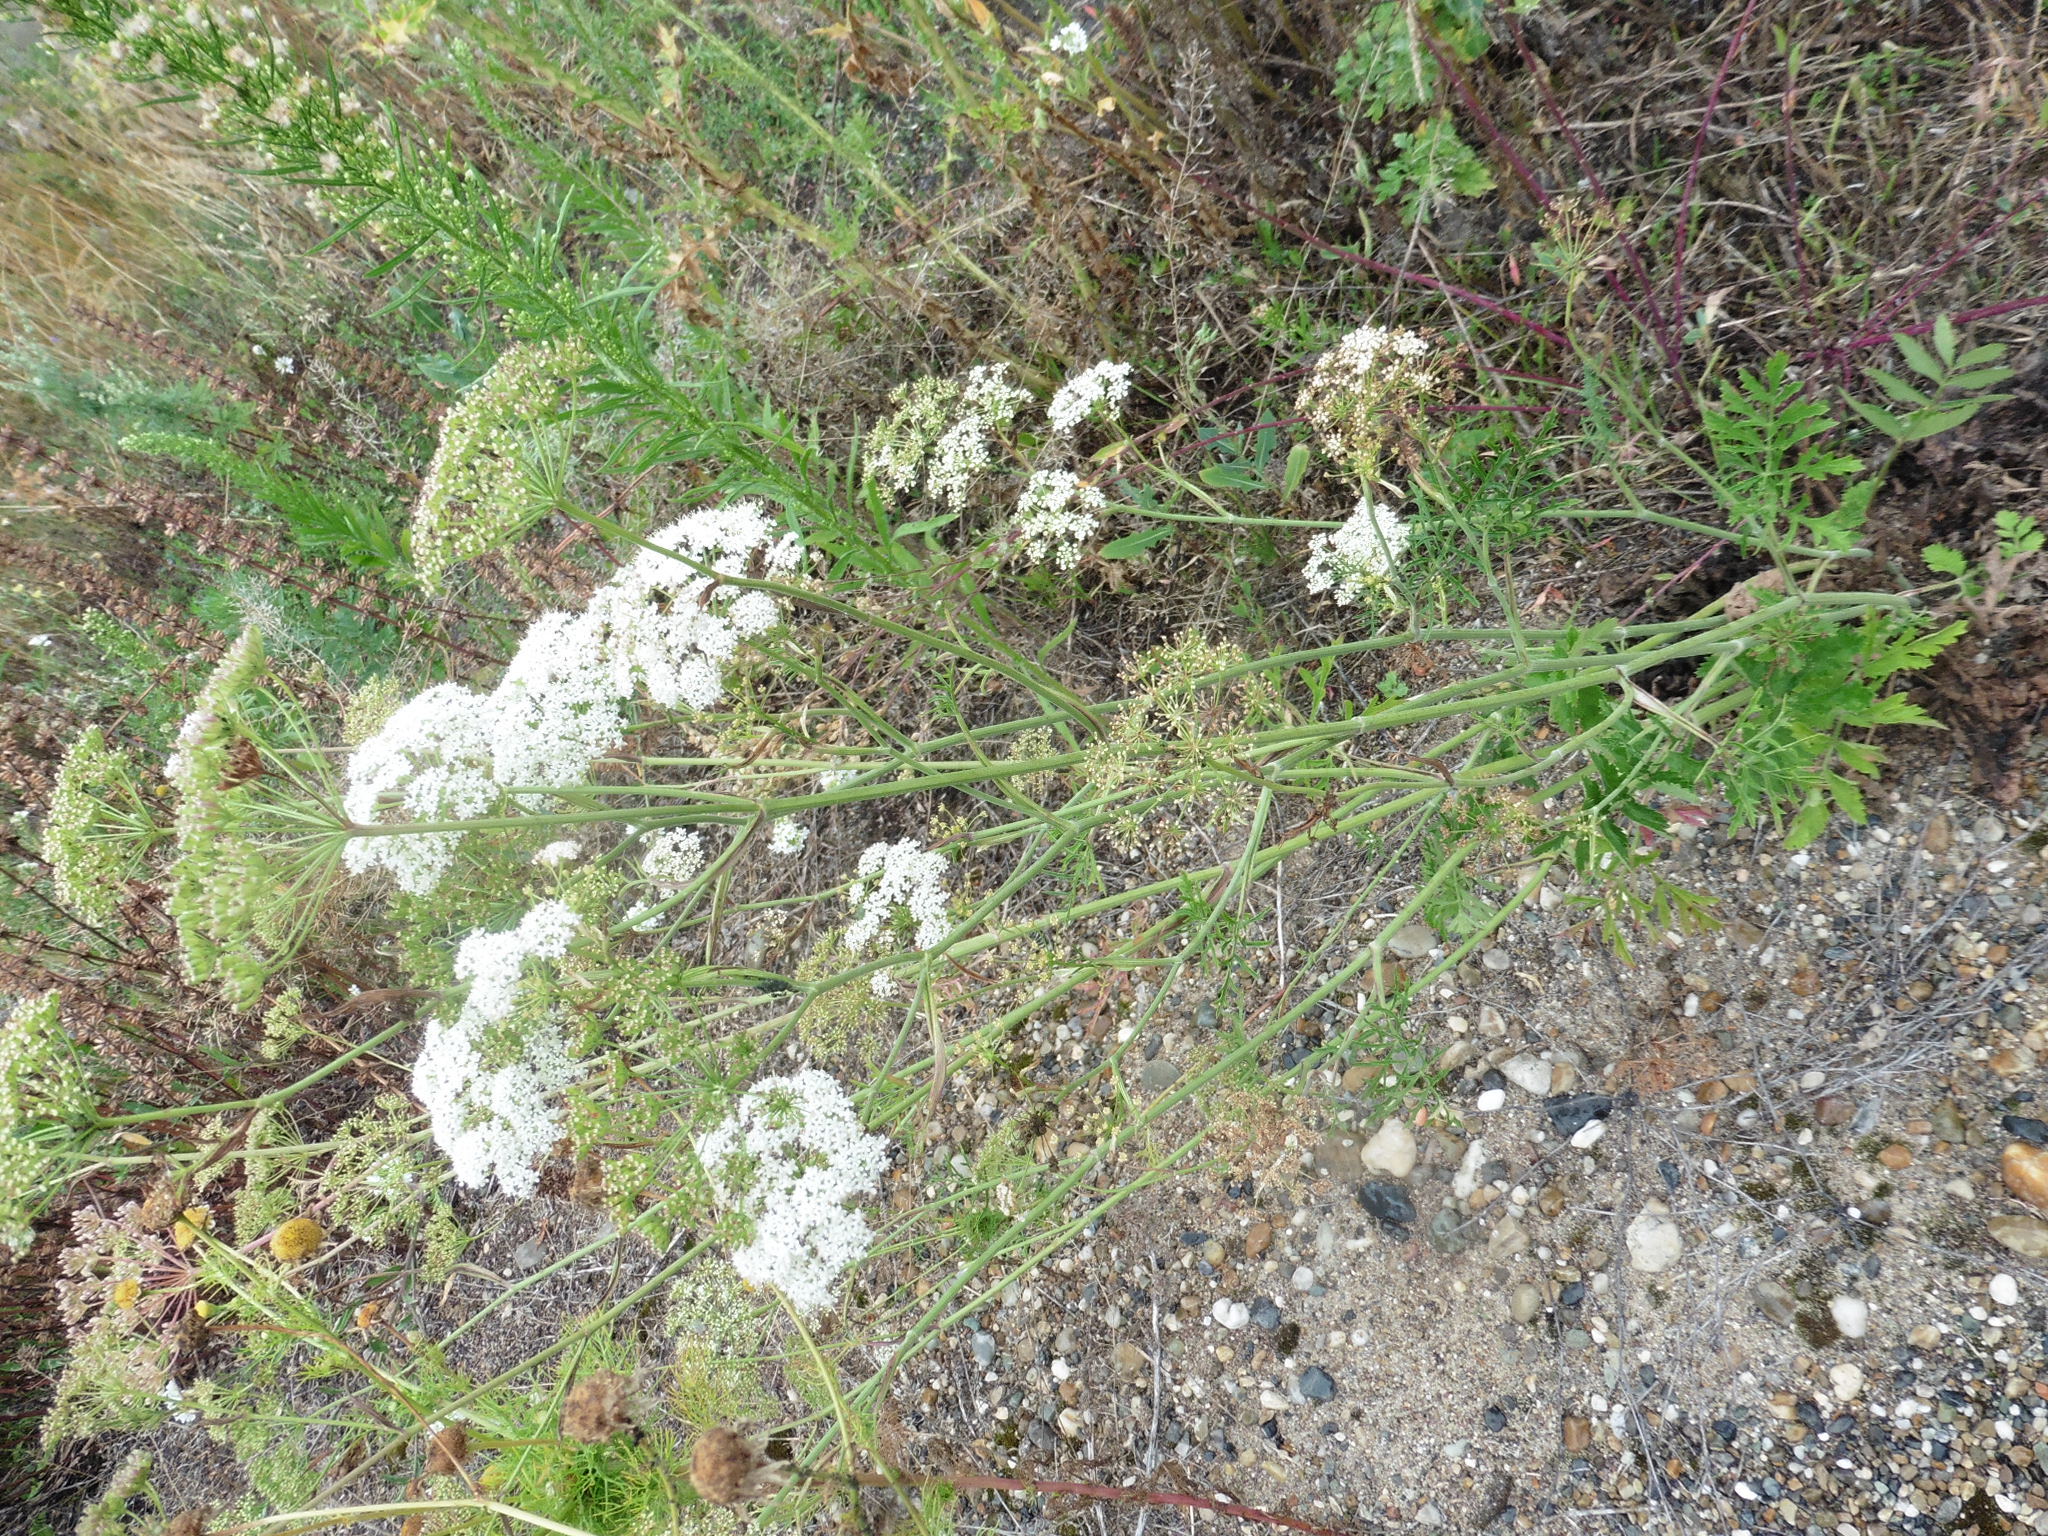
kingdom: Plantae
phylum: Tracheophyta
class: Magnoliopsida
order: Apiales
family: Apiaceae
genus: Pimpinella
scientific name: Pimpinella saxifraga
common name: Burnet-saxifrage
